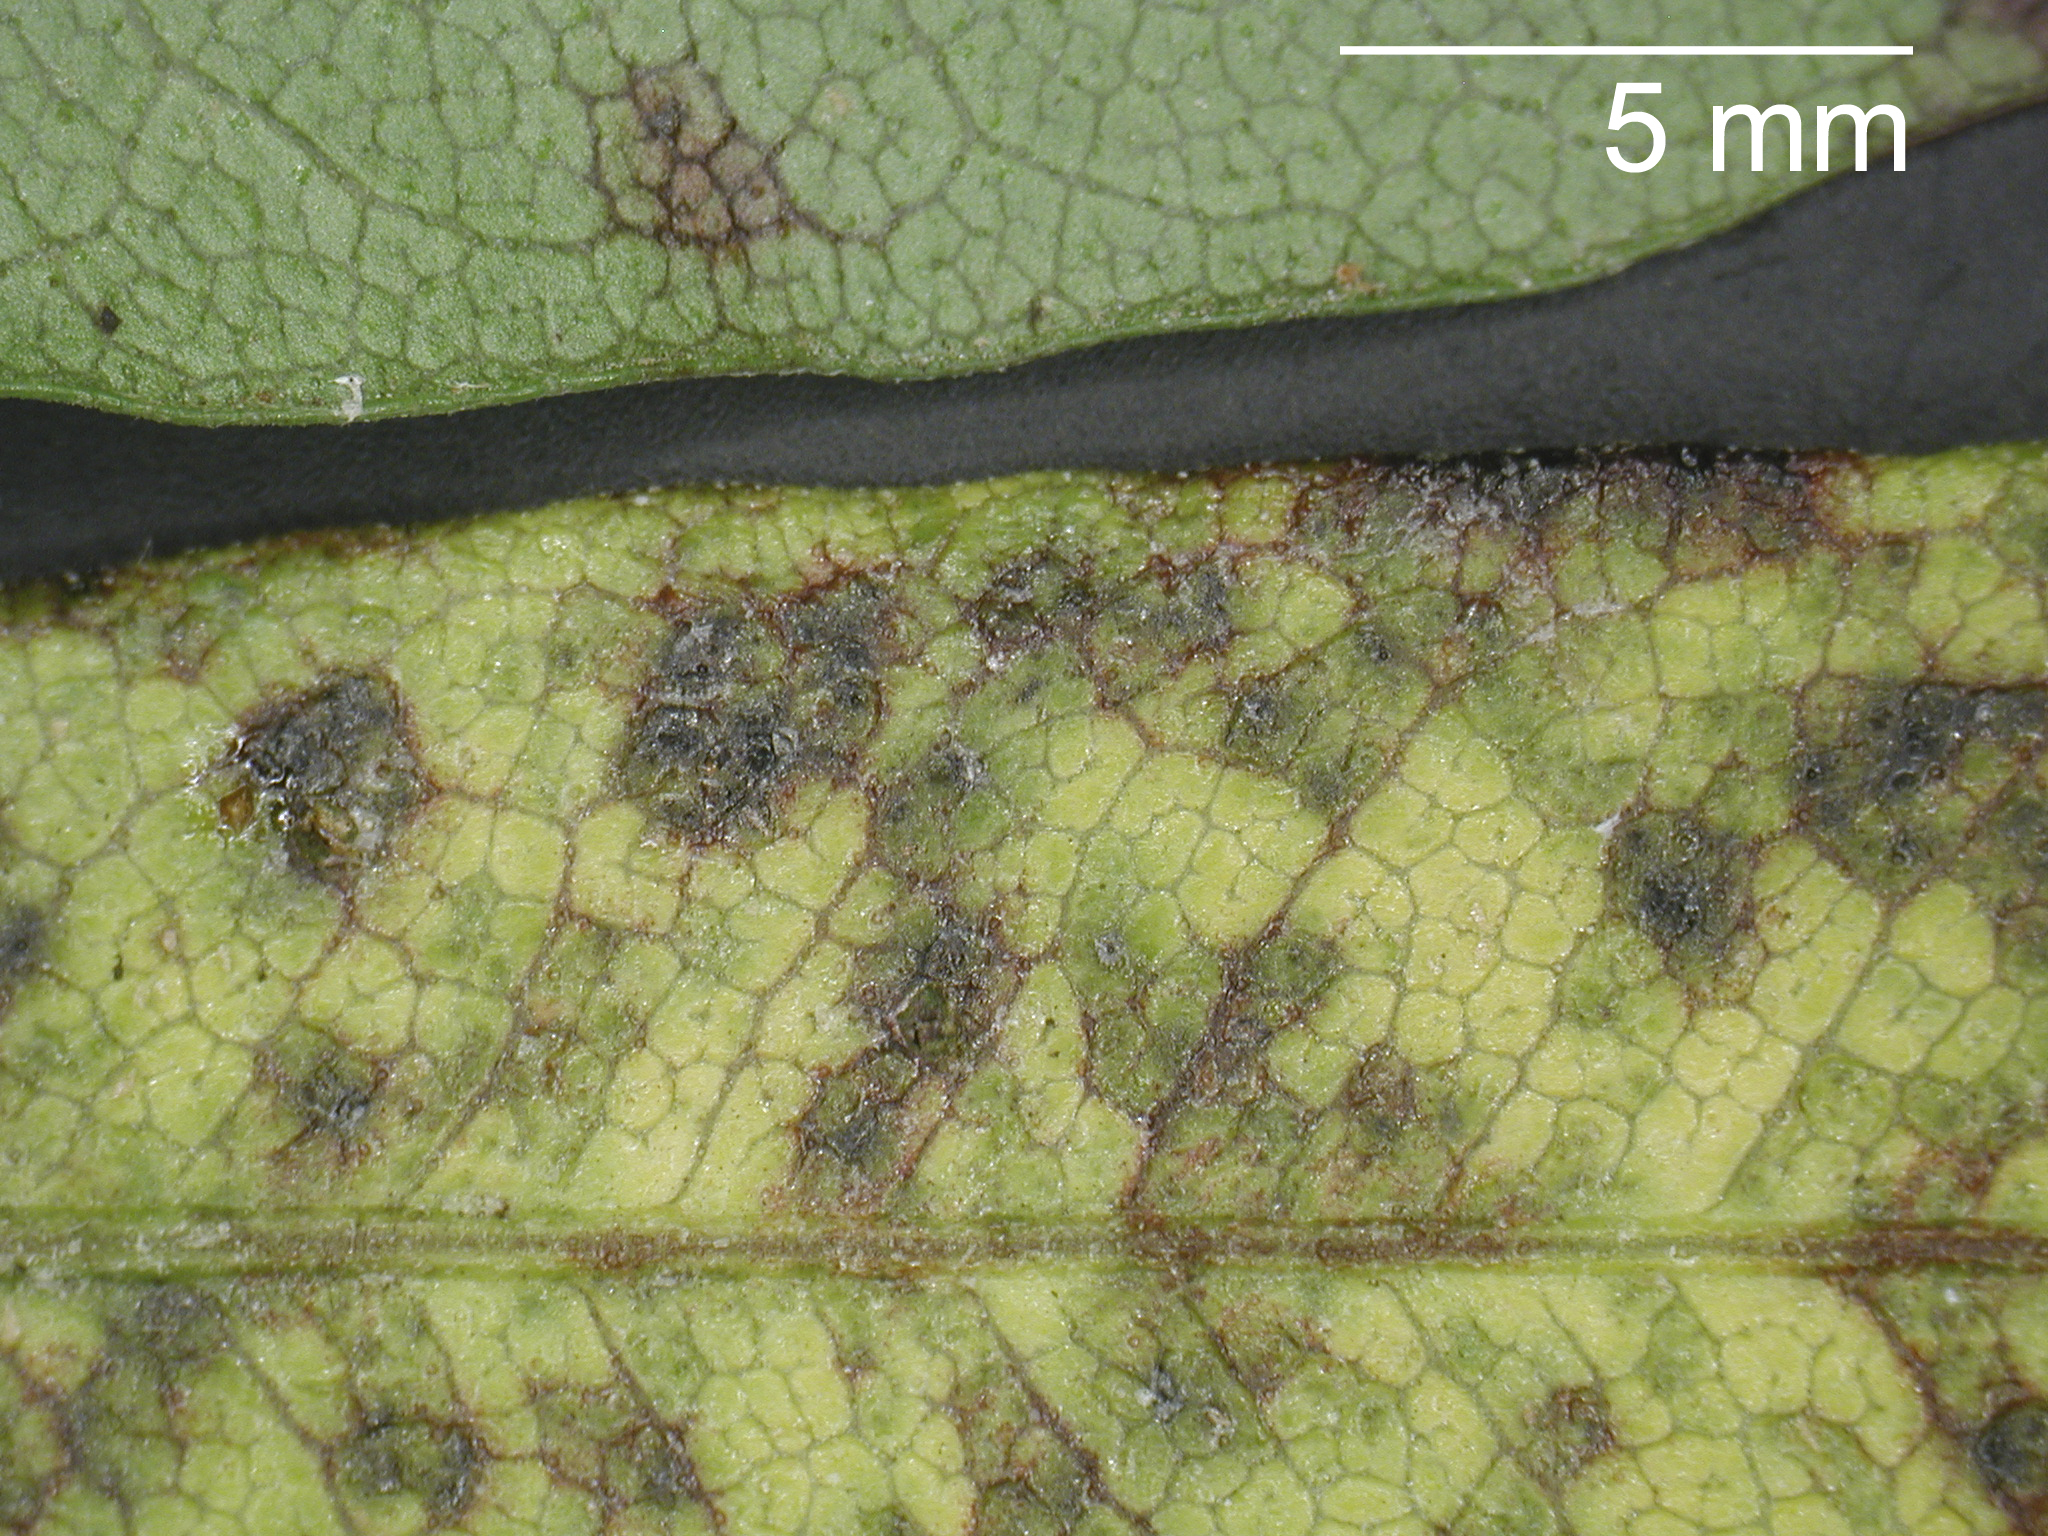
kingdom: Fungi
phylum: Ascomycota
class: Dothideomycetes
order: Mycosphaerellales
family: Mycosphaerellaceae
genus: Pseudocercospora
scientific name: Pseudocercospora dodonaeae
